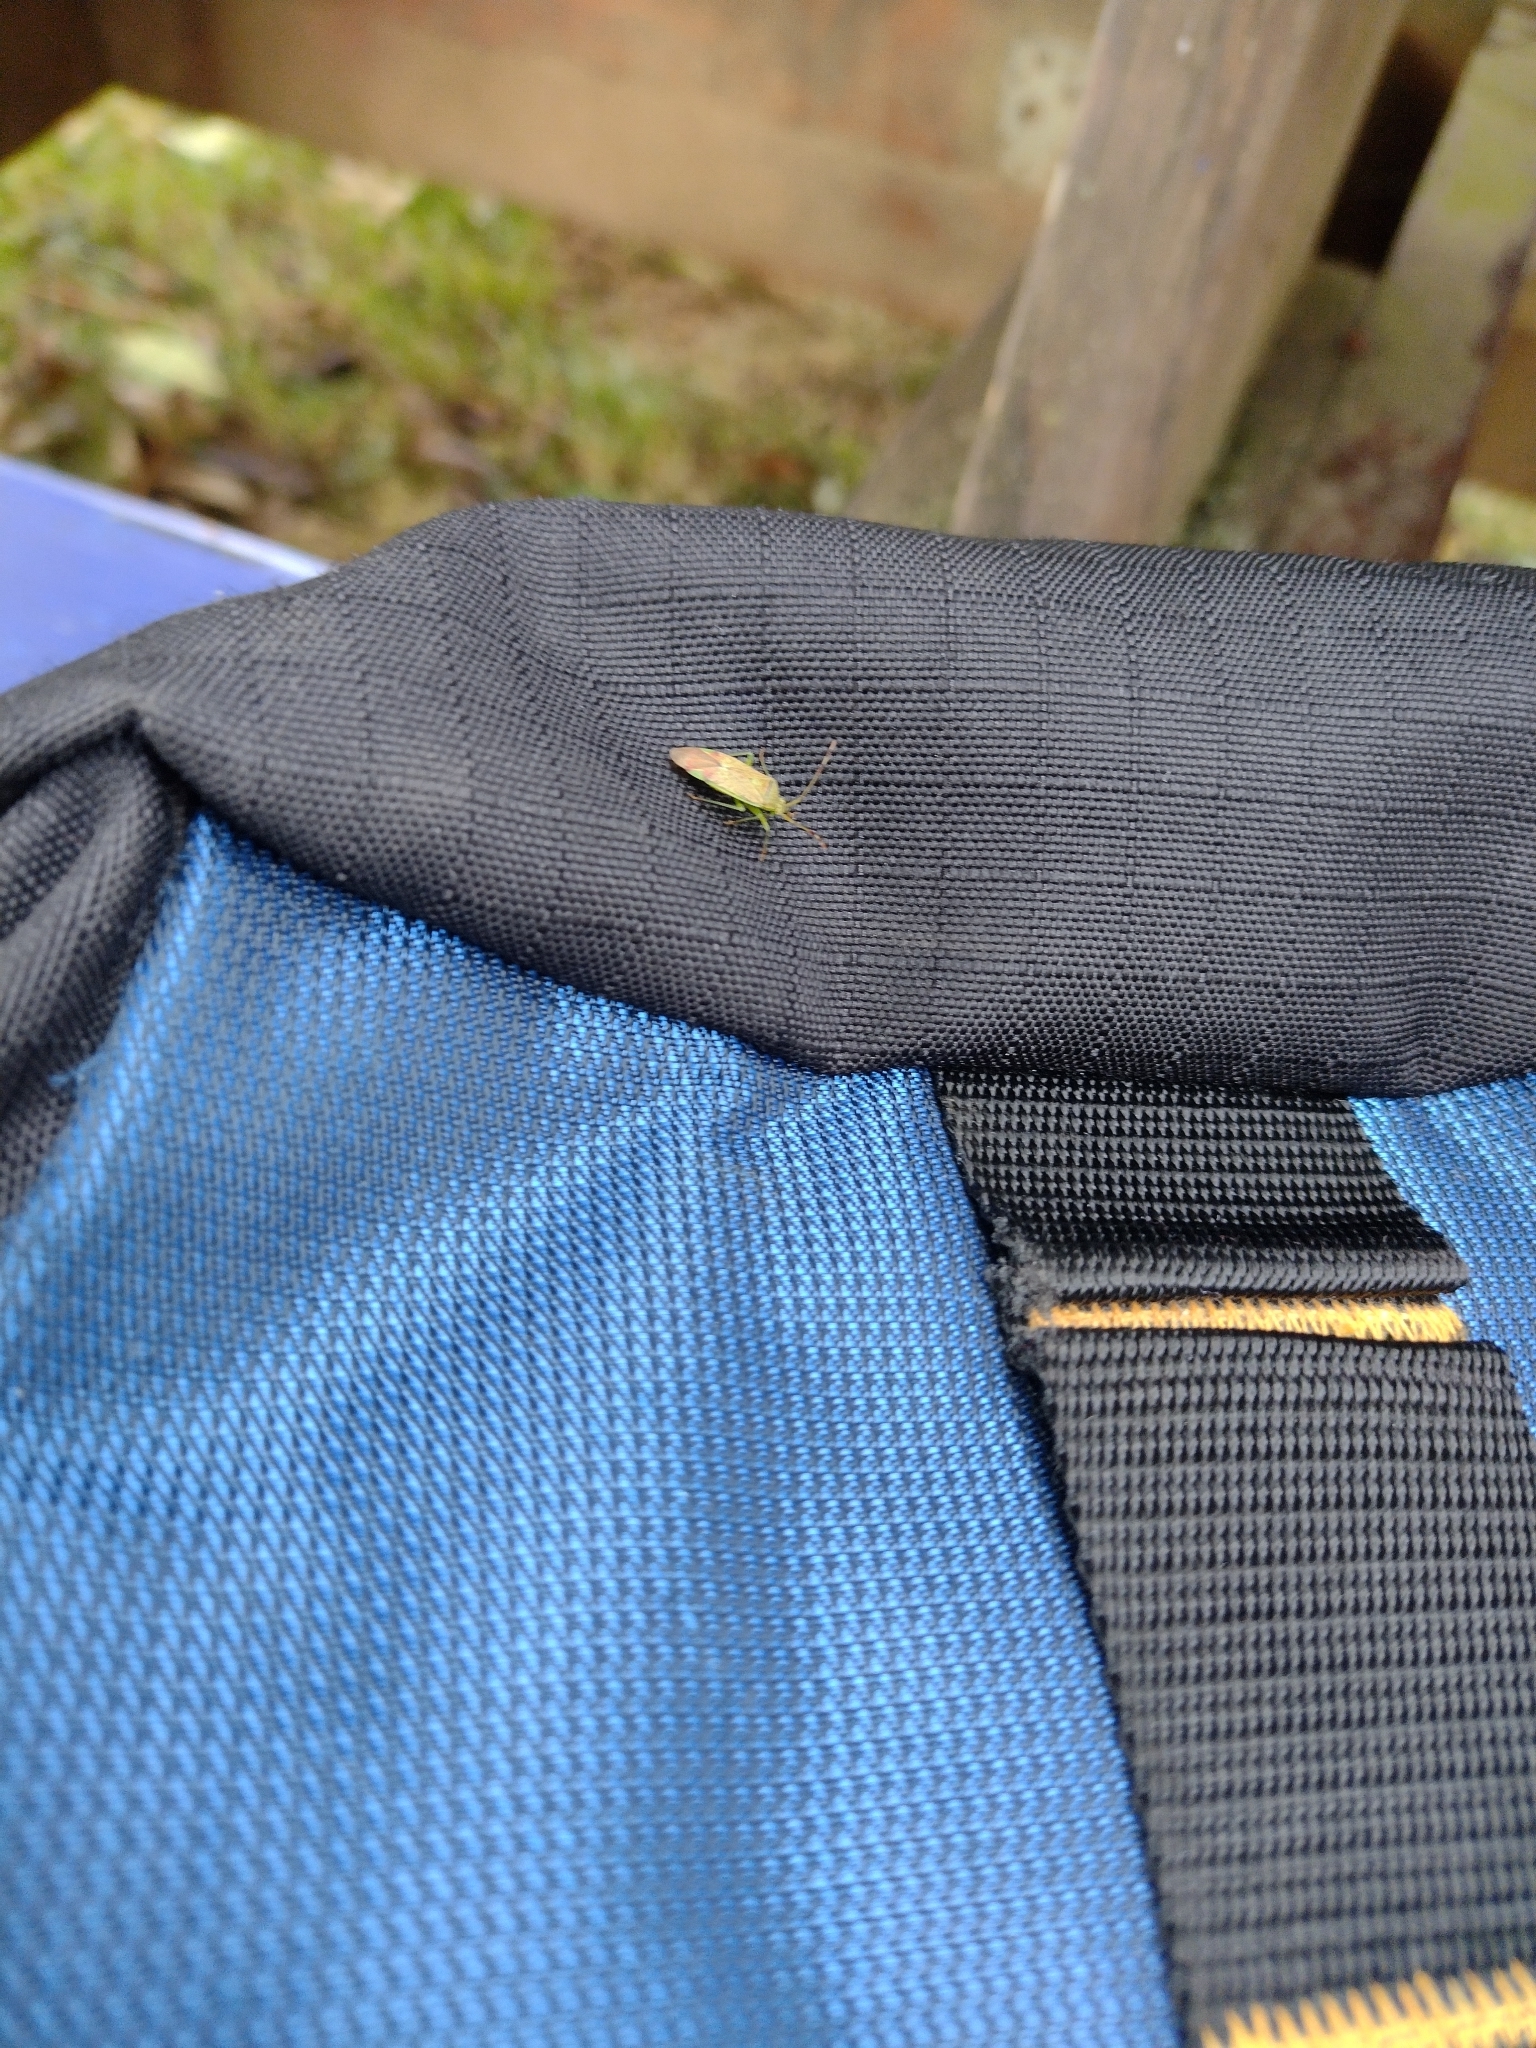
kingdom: Animalia
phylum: Arthropoda
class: Insecta
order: Hemiptera
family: Miridae
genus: Pantilius
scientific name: Pantilius tunicatus
